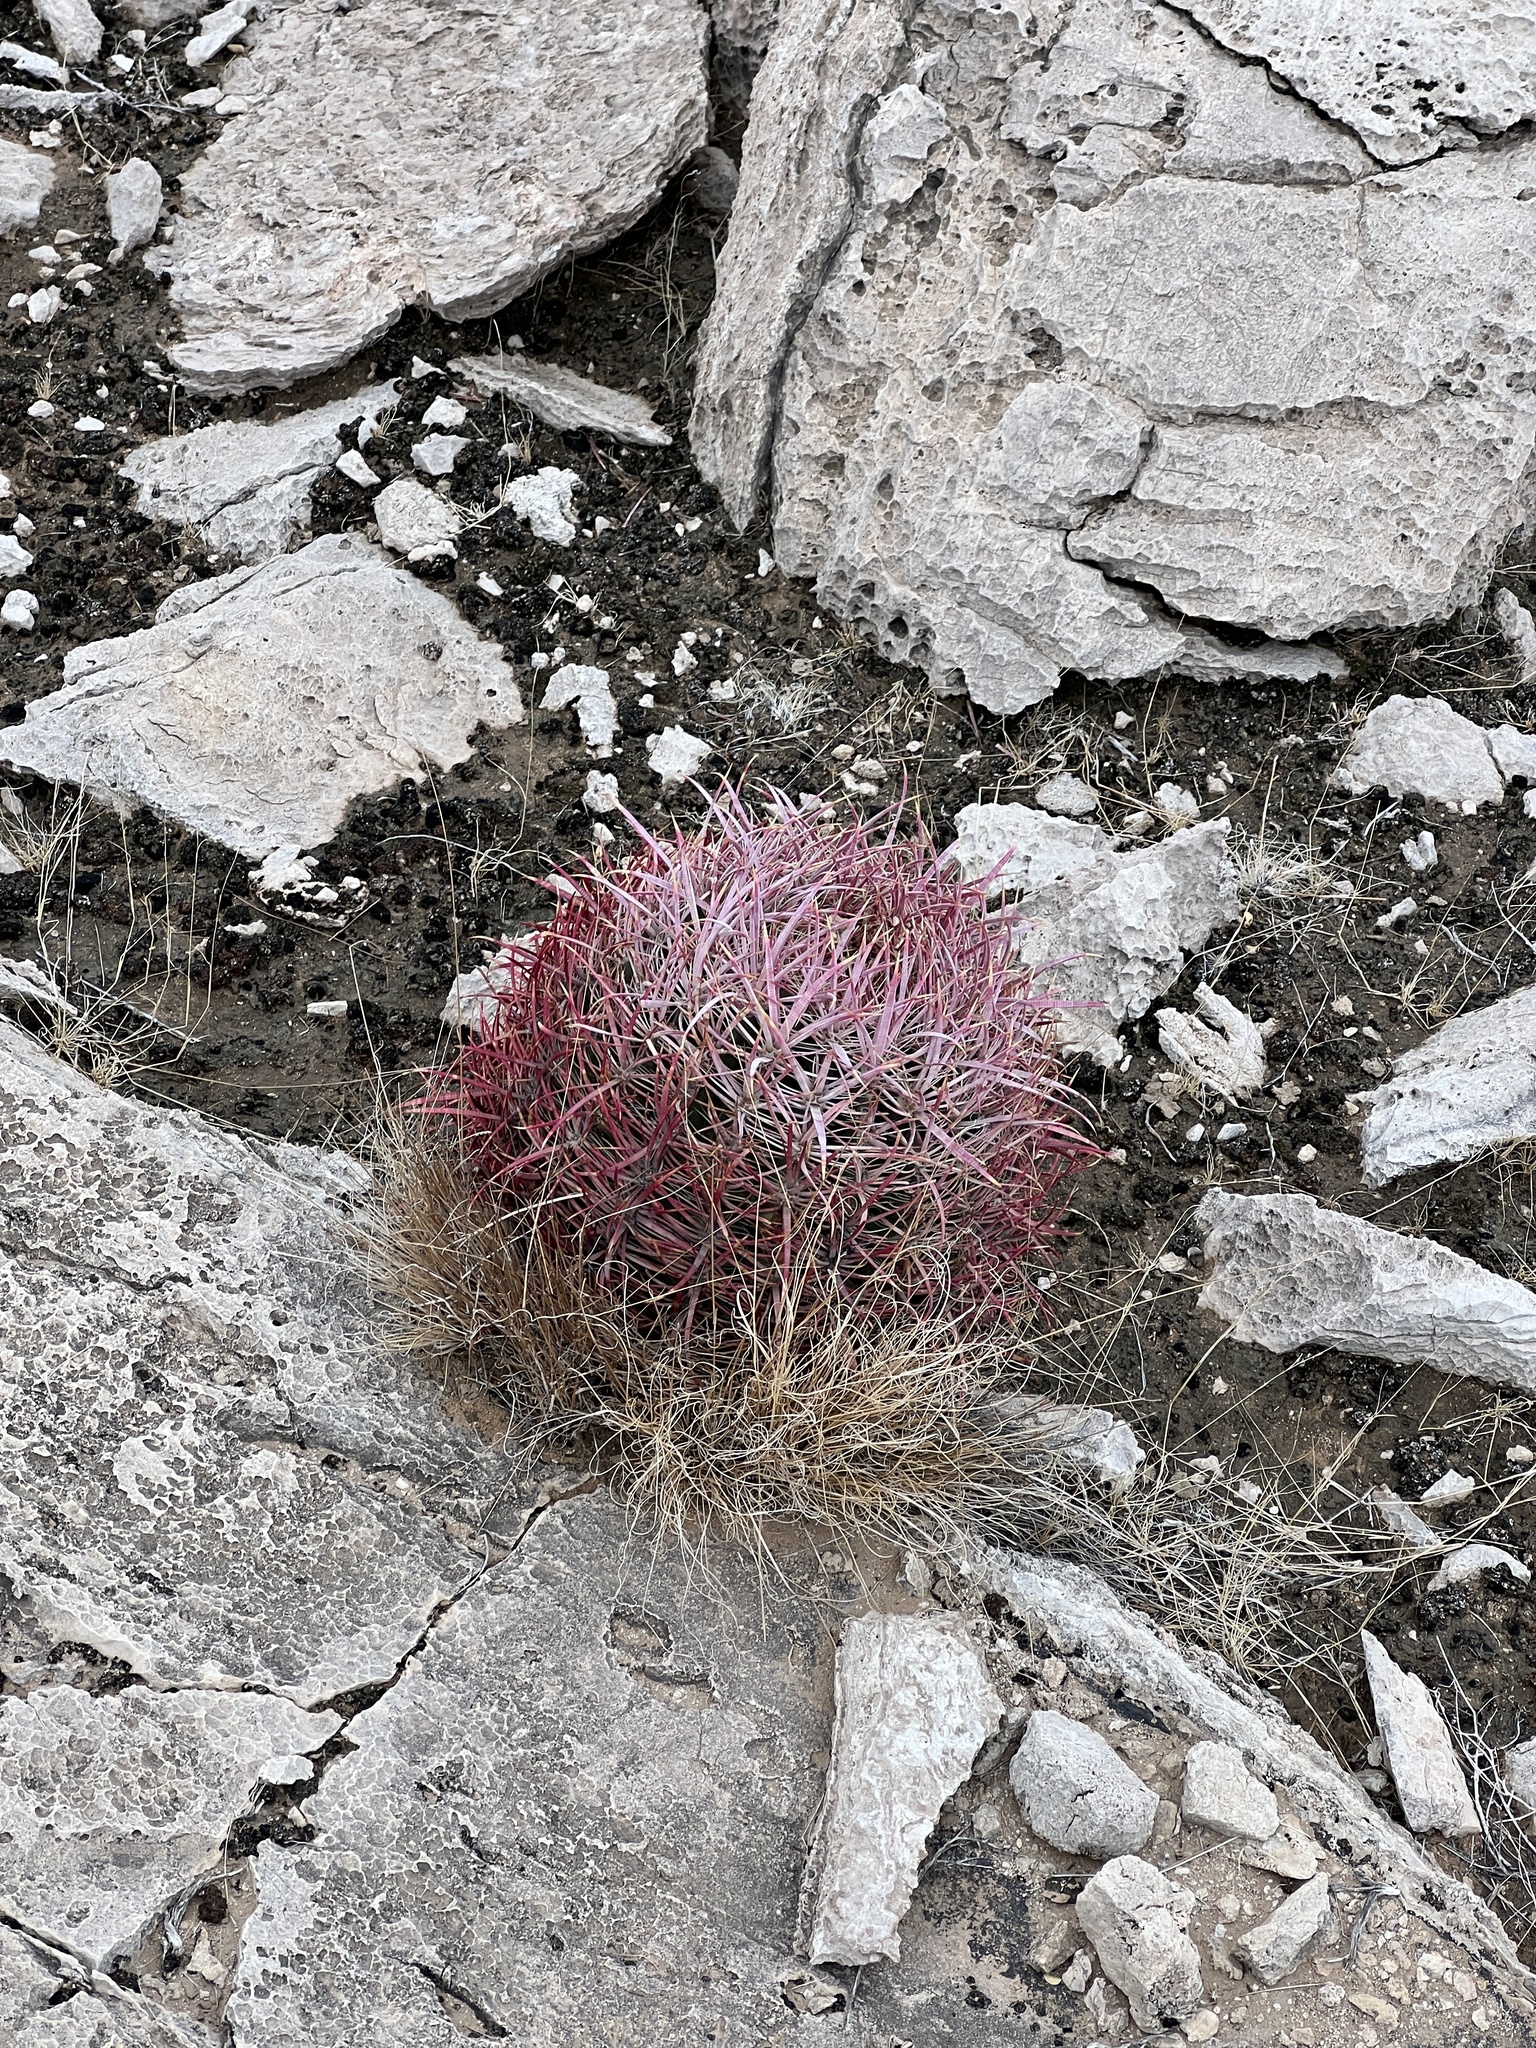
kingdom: Plantae
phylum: Tracheophyta
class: Magnoliopsida
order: Caryophyllales
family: Cactaceae
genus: Ferocactus
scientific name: Ferocactus cylindraceus
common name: California barrel cactus
